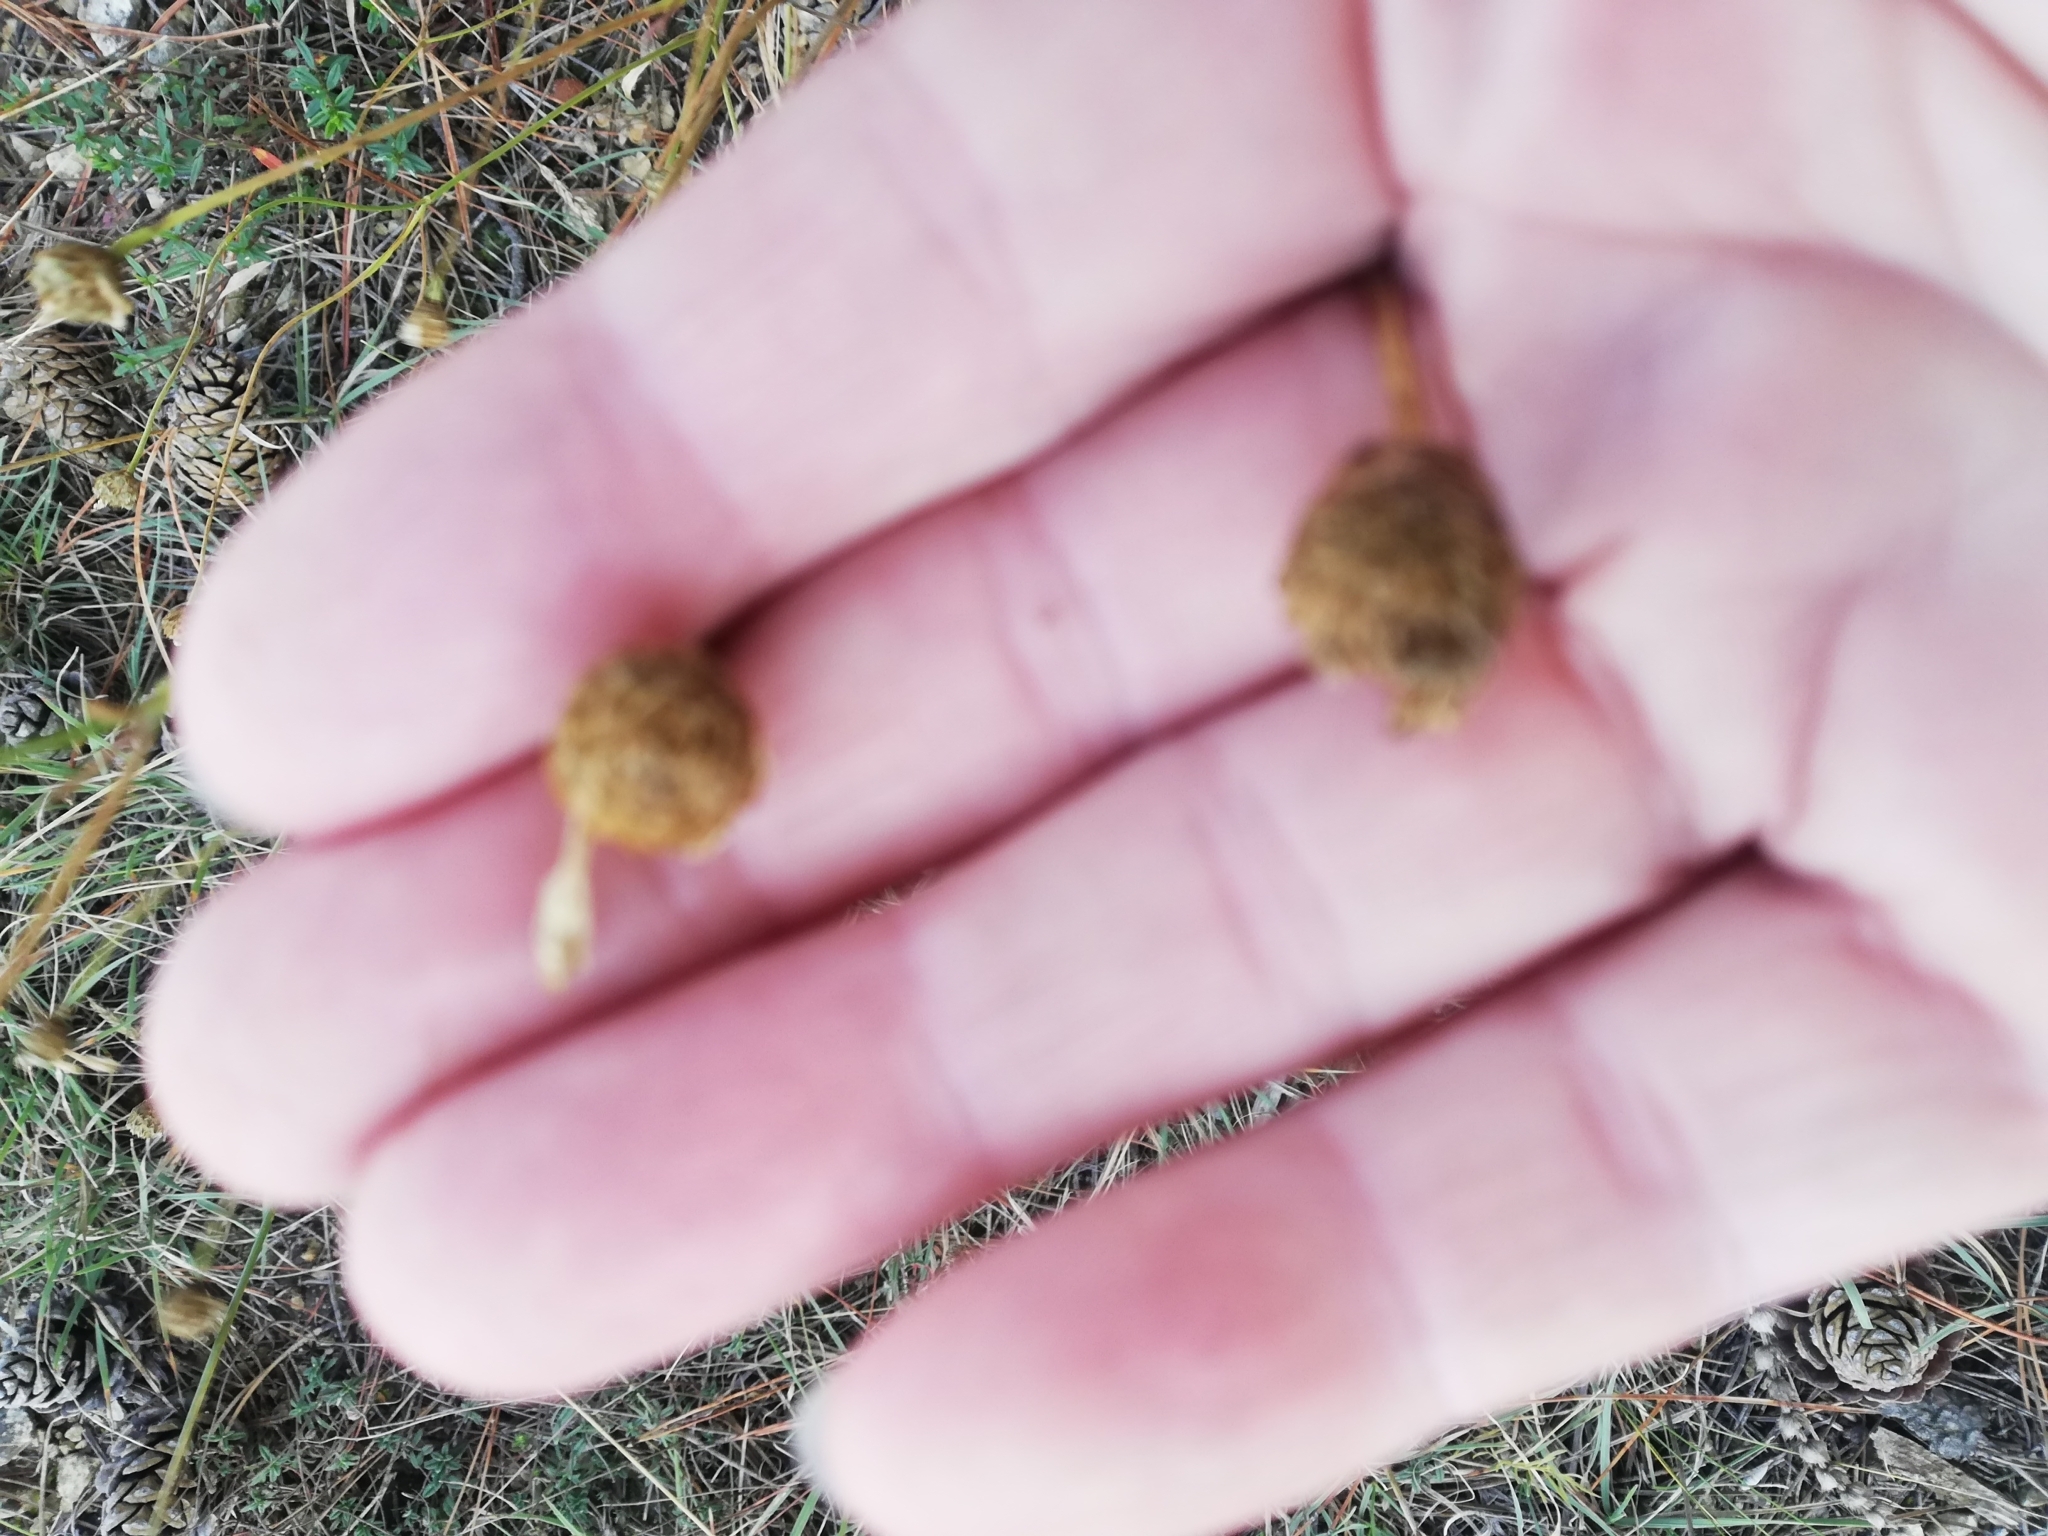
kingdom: Plantae
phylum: Tracheophyta
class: Magnoliopsida
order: Rosales
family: Rosaceae
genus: Poterium
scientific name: Poterium sanguisorba
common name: Salad burnet
